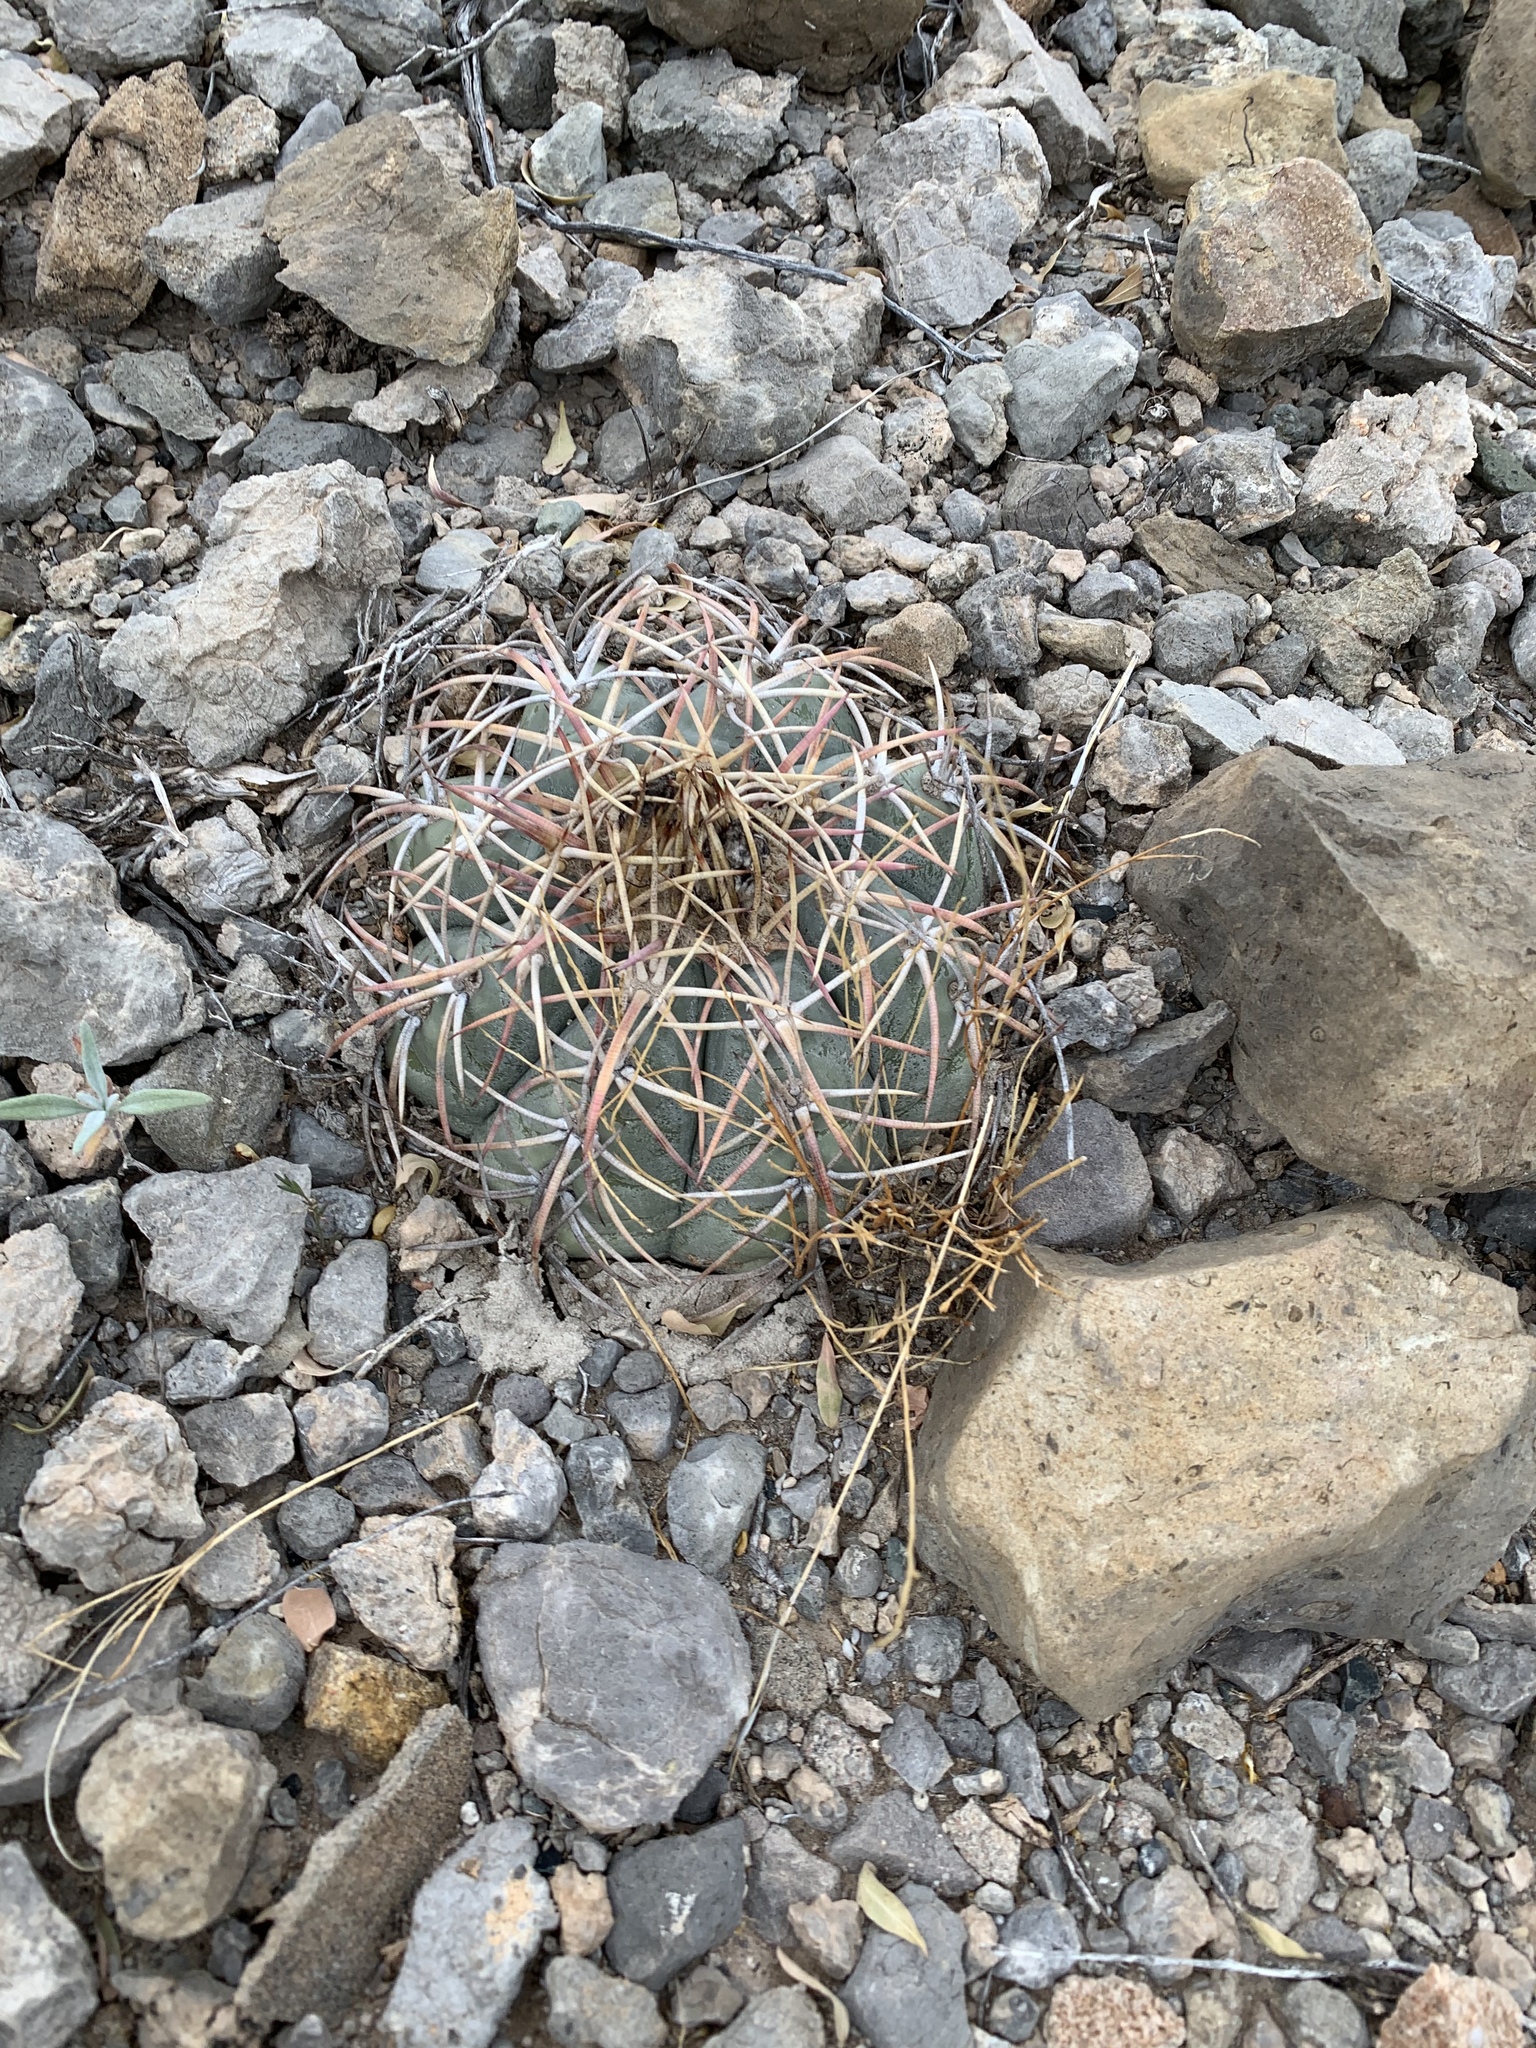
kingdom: Plantae
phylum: Tracheophyta
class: Magnoliopsida
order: Caryophyllales
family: Cactaceae
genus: Echinocactus
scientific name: Echinocactus horizonthalonius
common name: Devilshead
